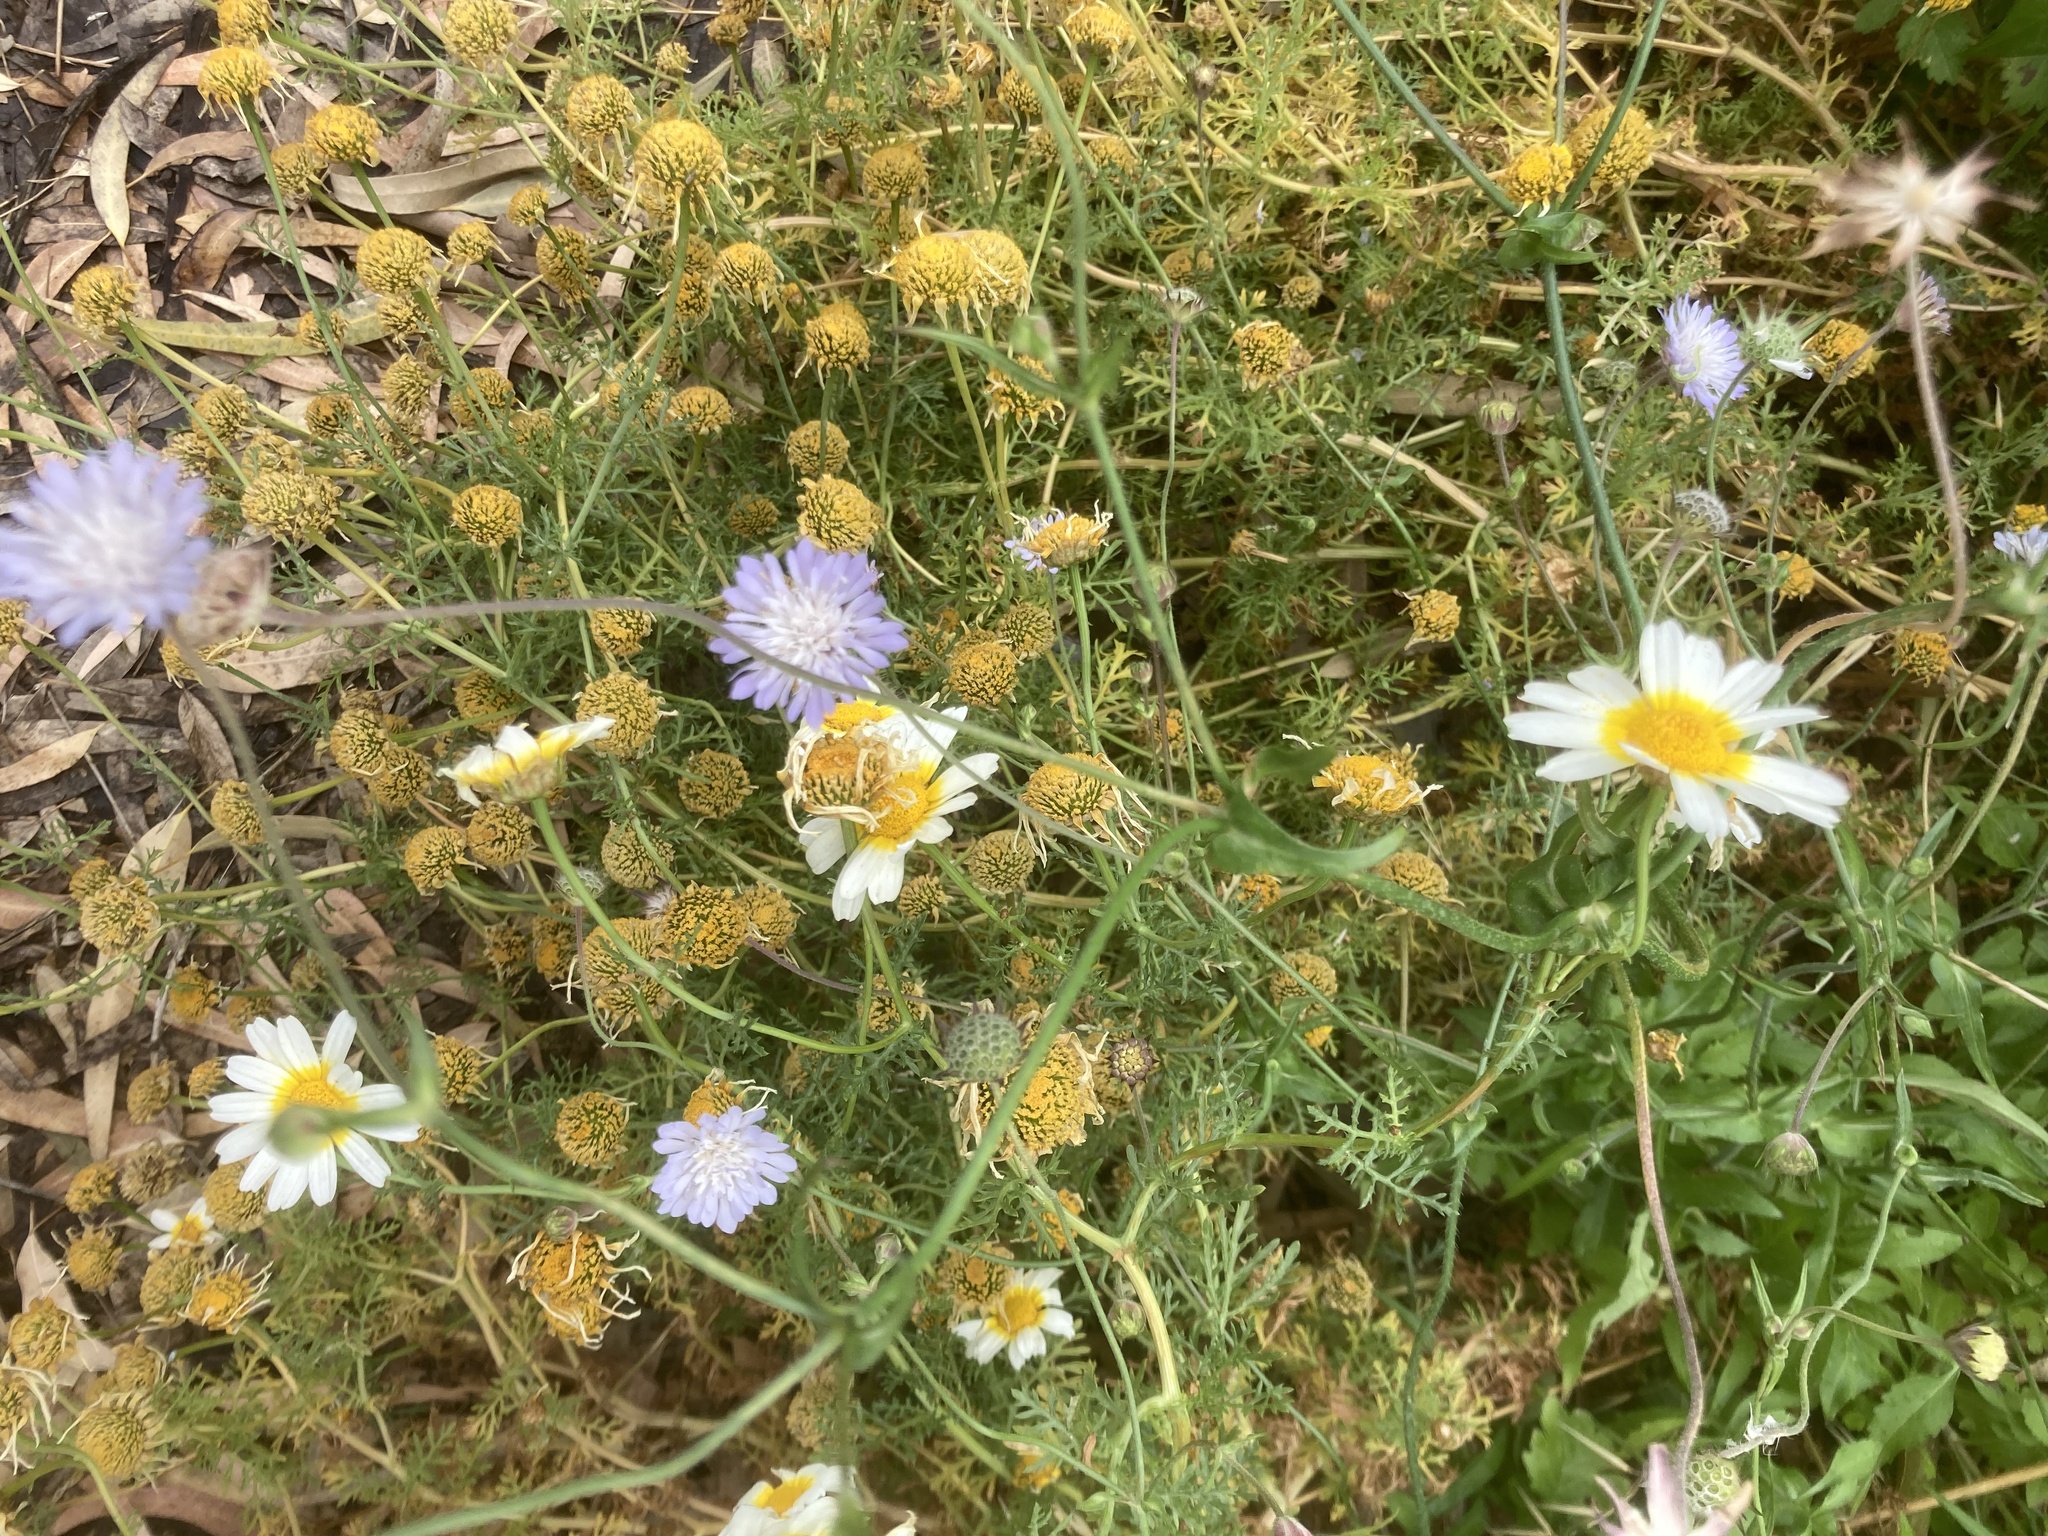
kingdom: Plantae
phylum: Tracheophyta
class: Magnoliopsida
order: Asterales
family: Asteraceae
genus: Glebionis
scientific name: Glebionis coronaria
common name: Crowndaisy
